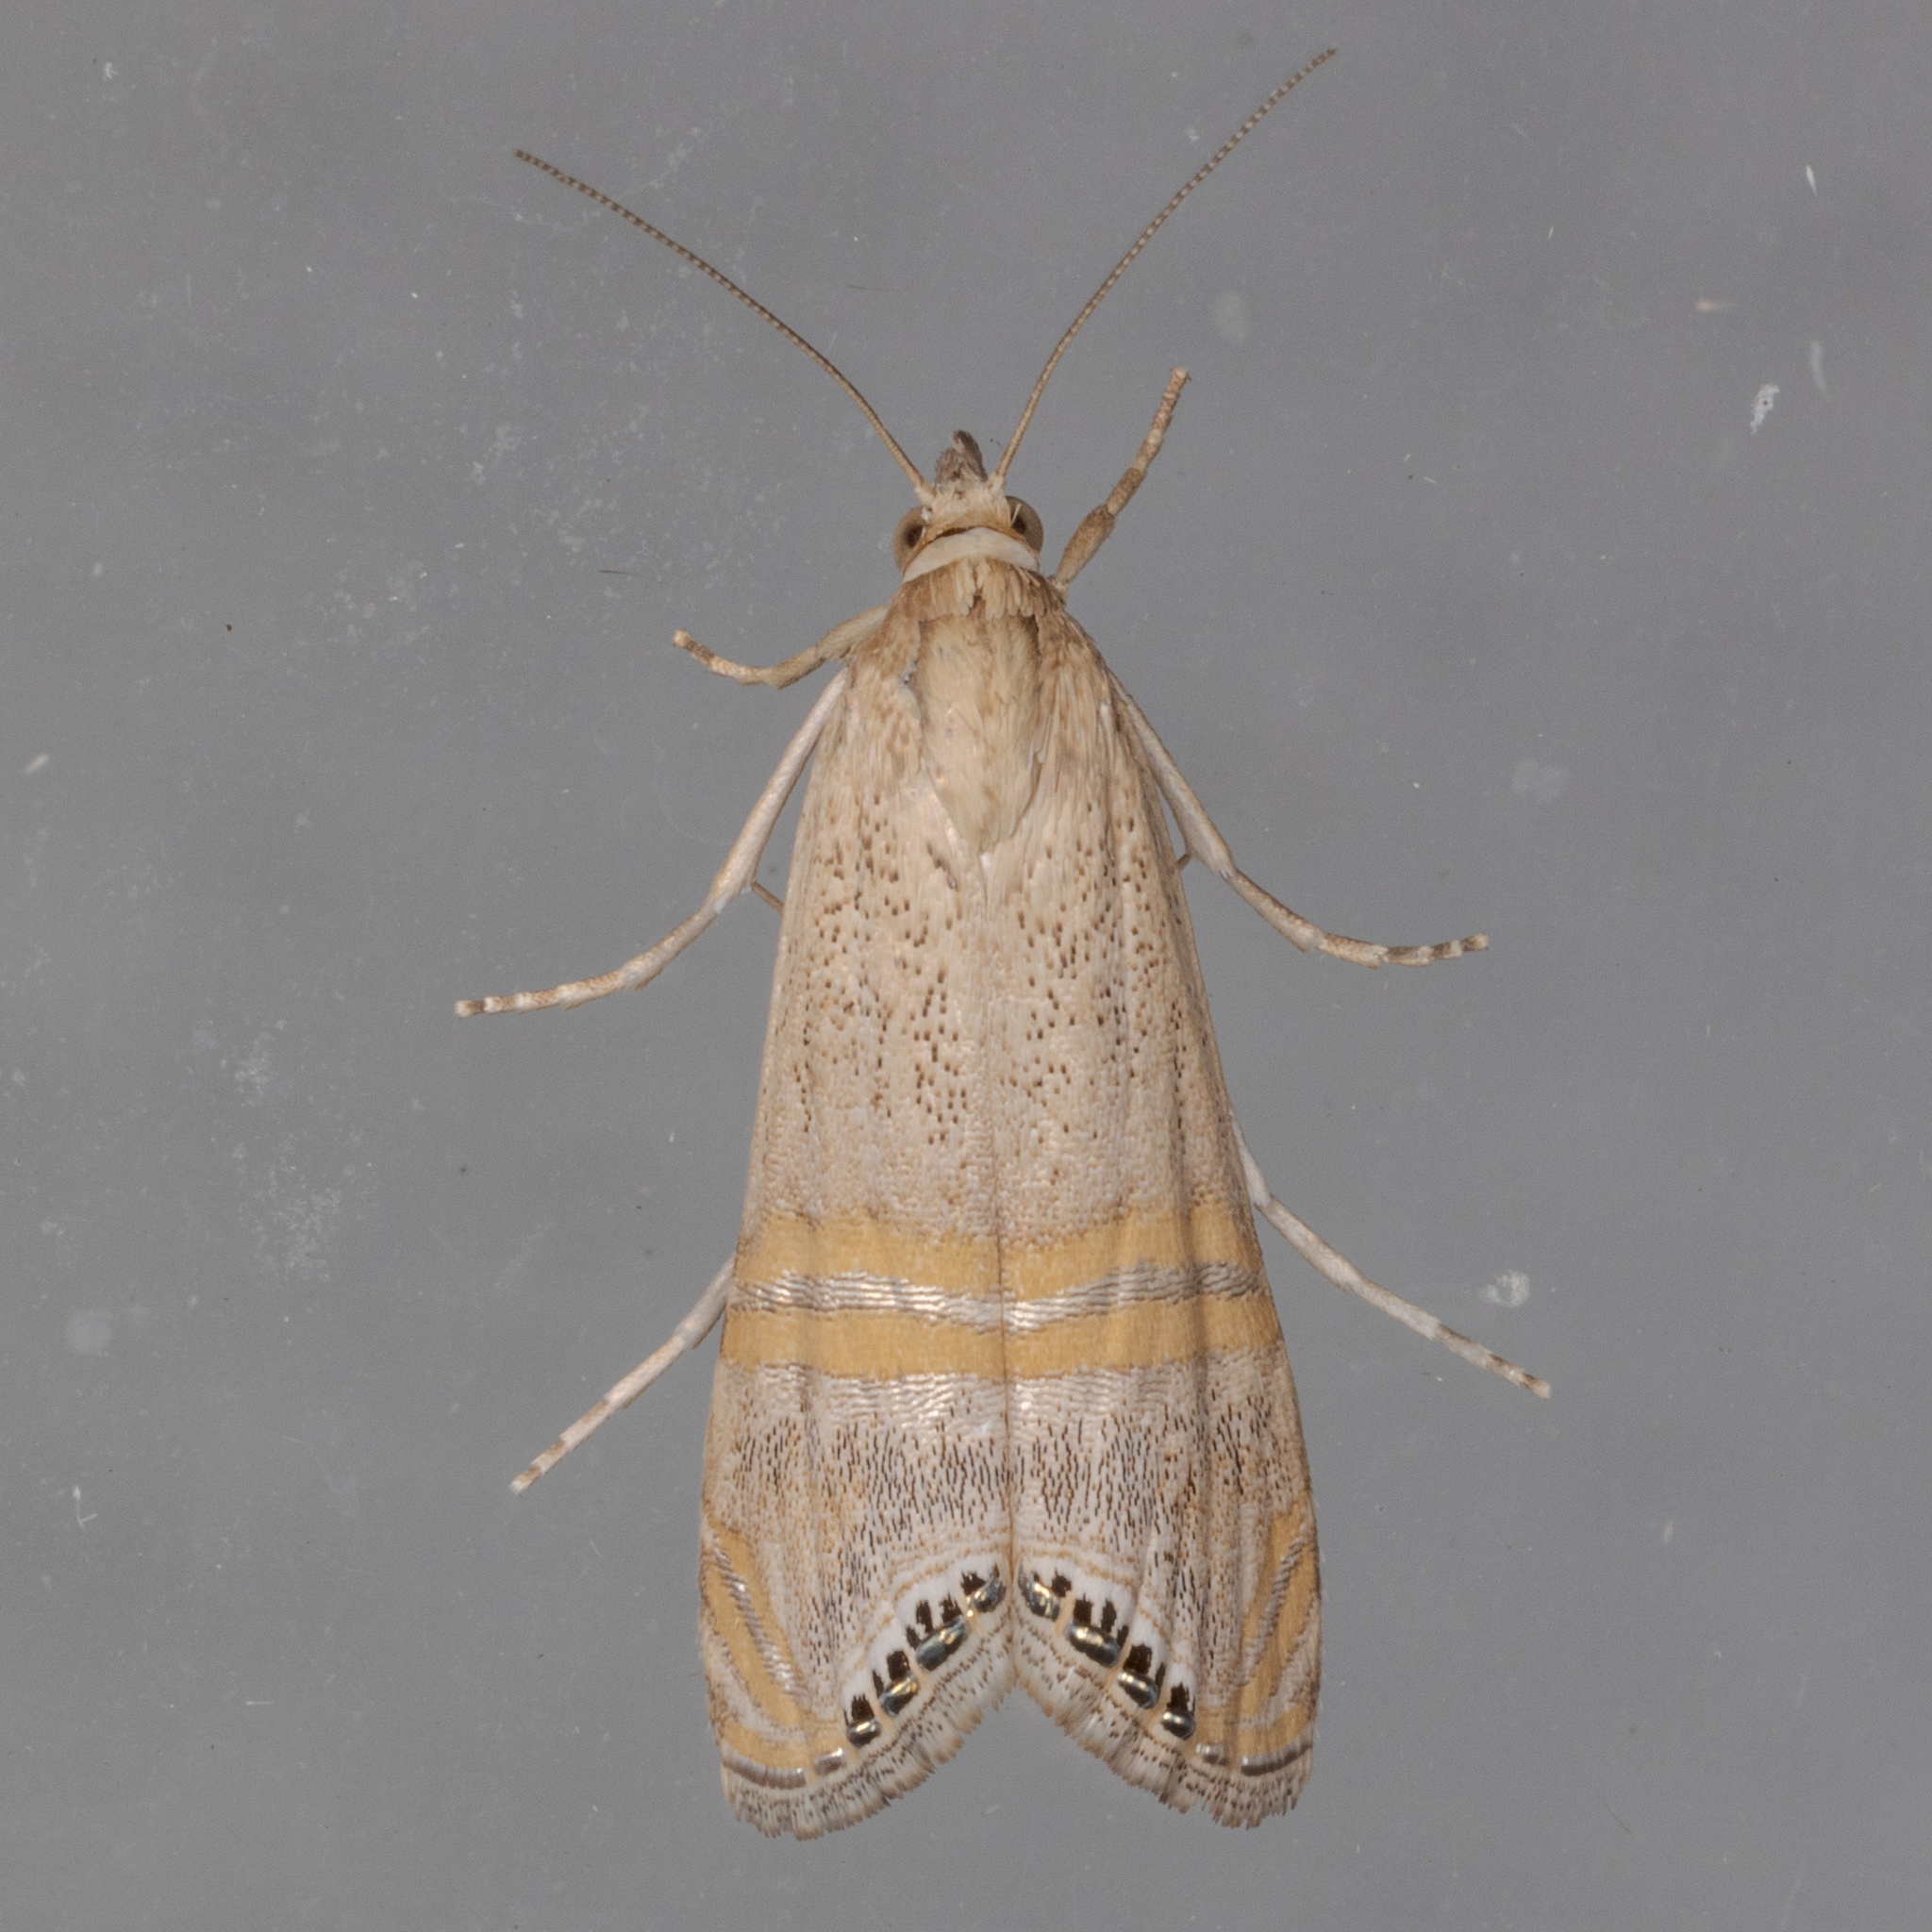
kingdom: Animalia
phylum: Arthropoda
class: Insecta
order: Lepidoptera
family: Crambidae
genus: Euchromius
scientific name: Euchromius ocellea
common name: Necklace veneer moth
